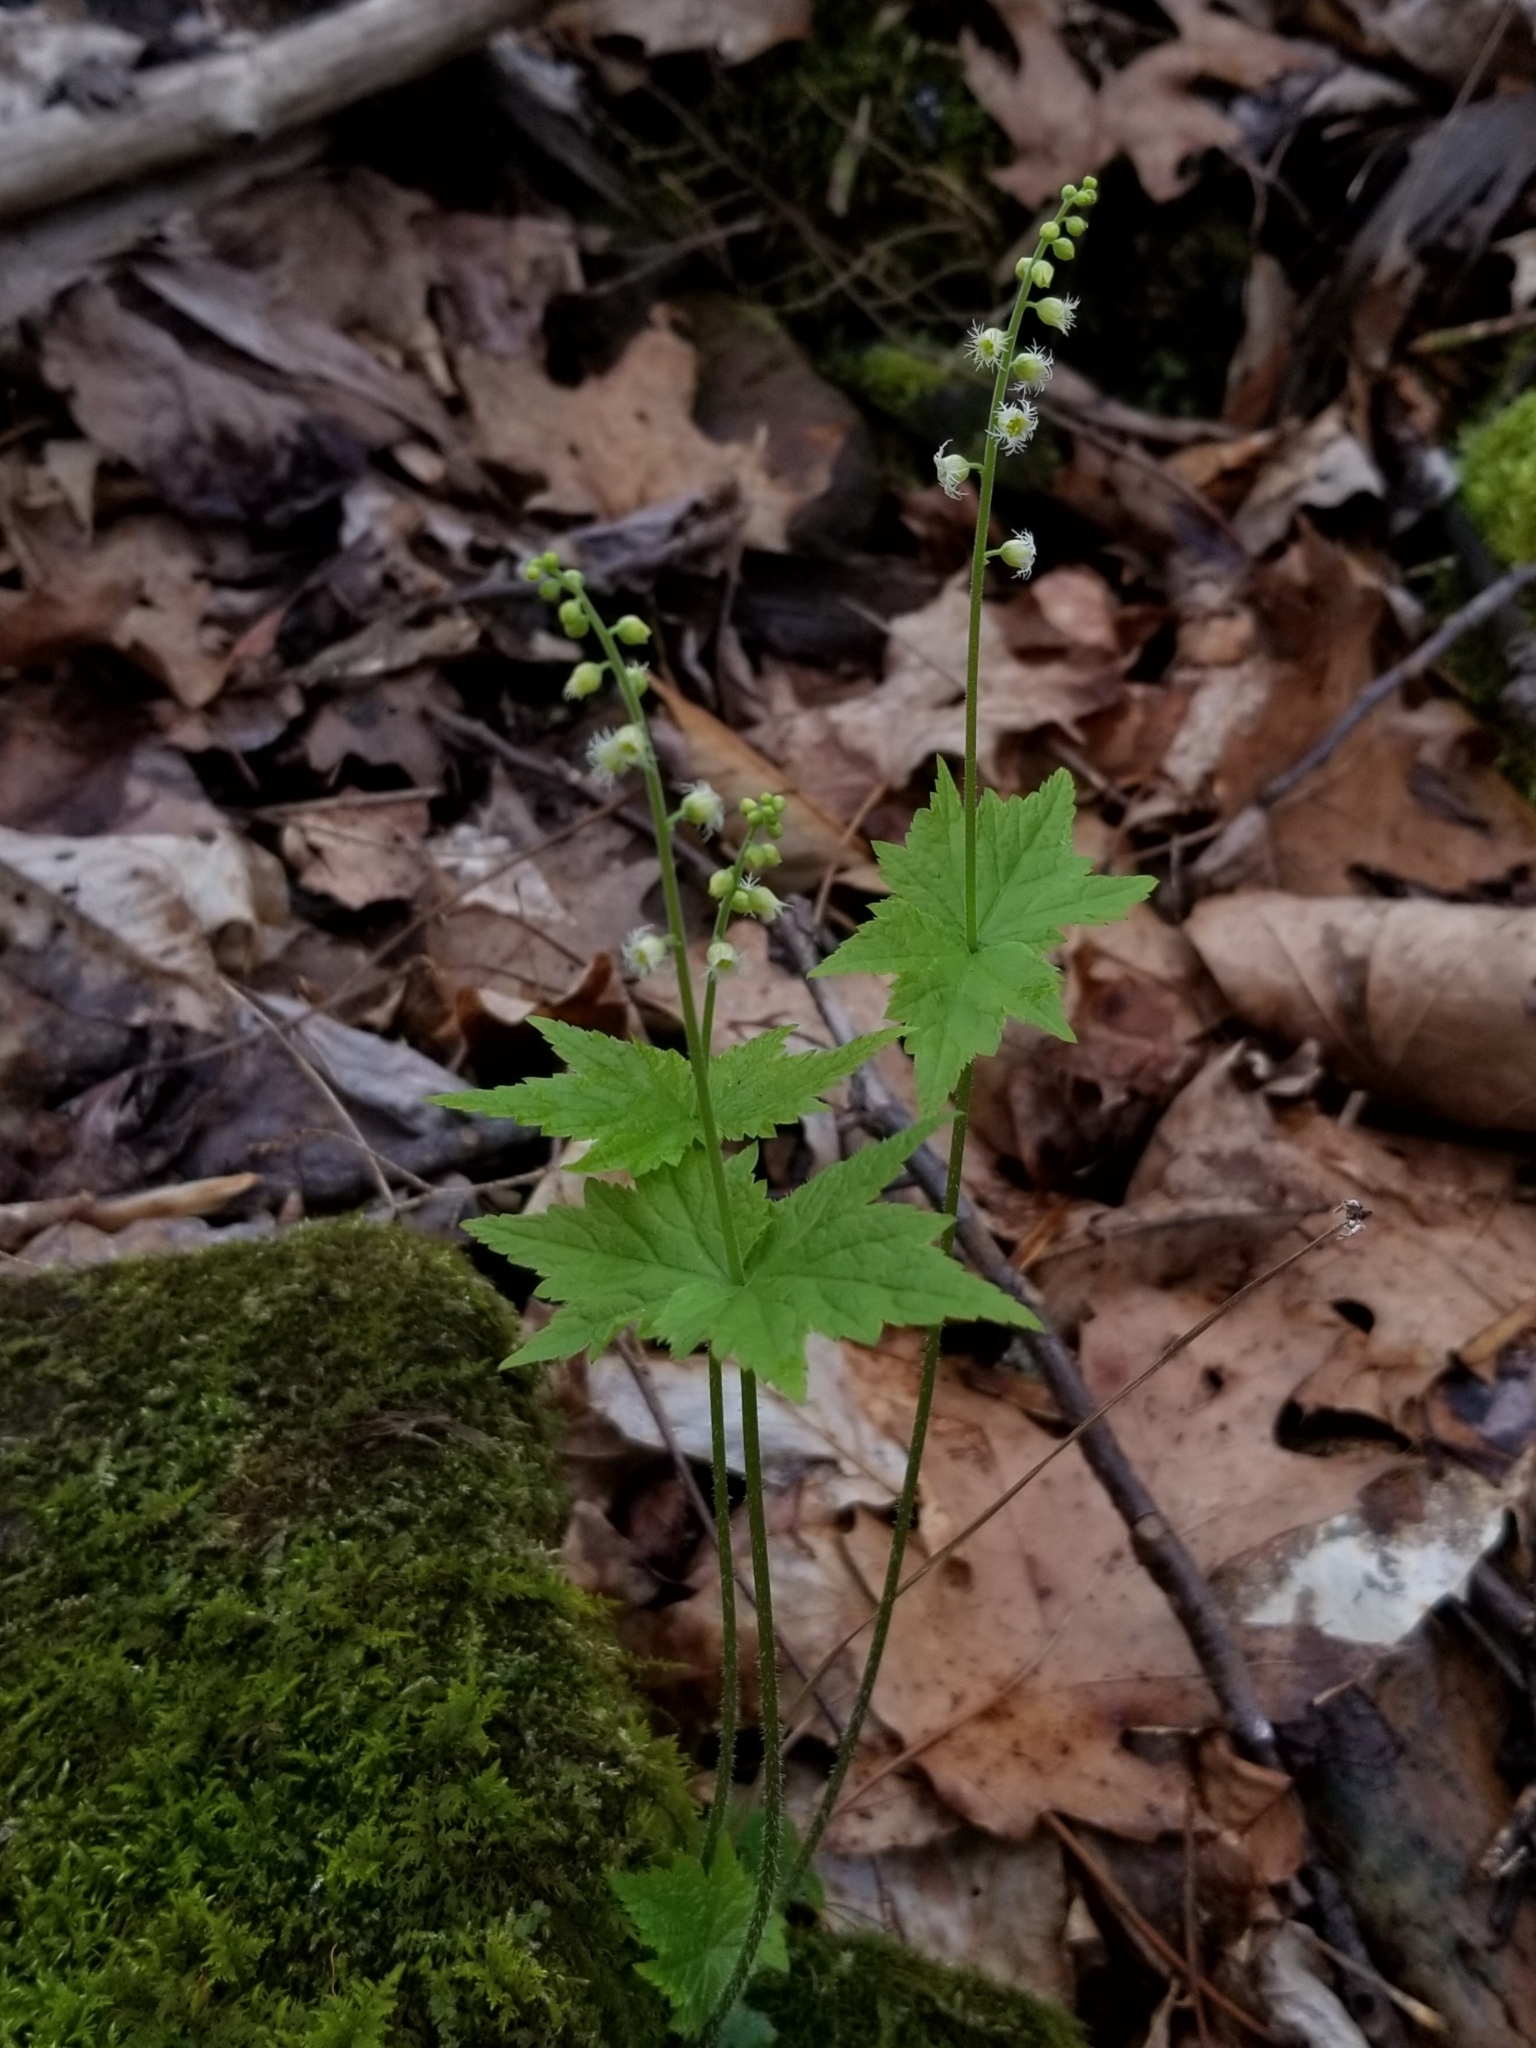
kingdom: Plantae
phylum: Tracheophyta
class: Magnoliopsida
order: Saxifragales
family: Saxifragaceae
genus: Mitella
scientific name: Mitella diphylla
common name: Coolwort
